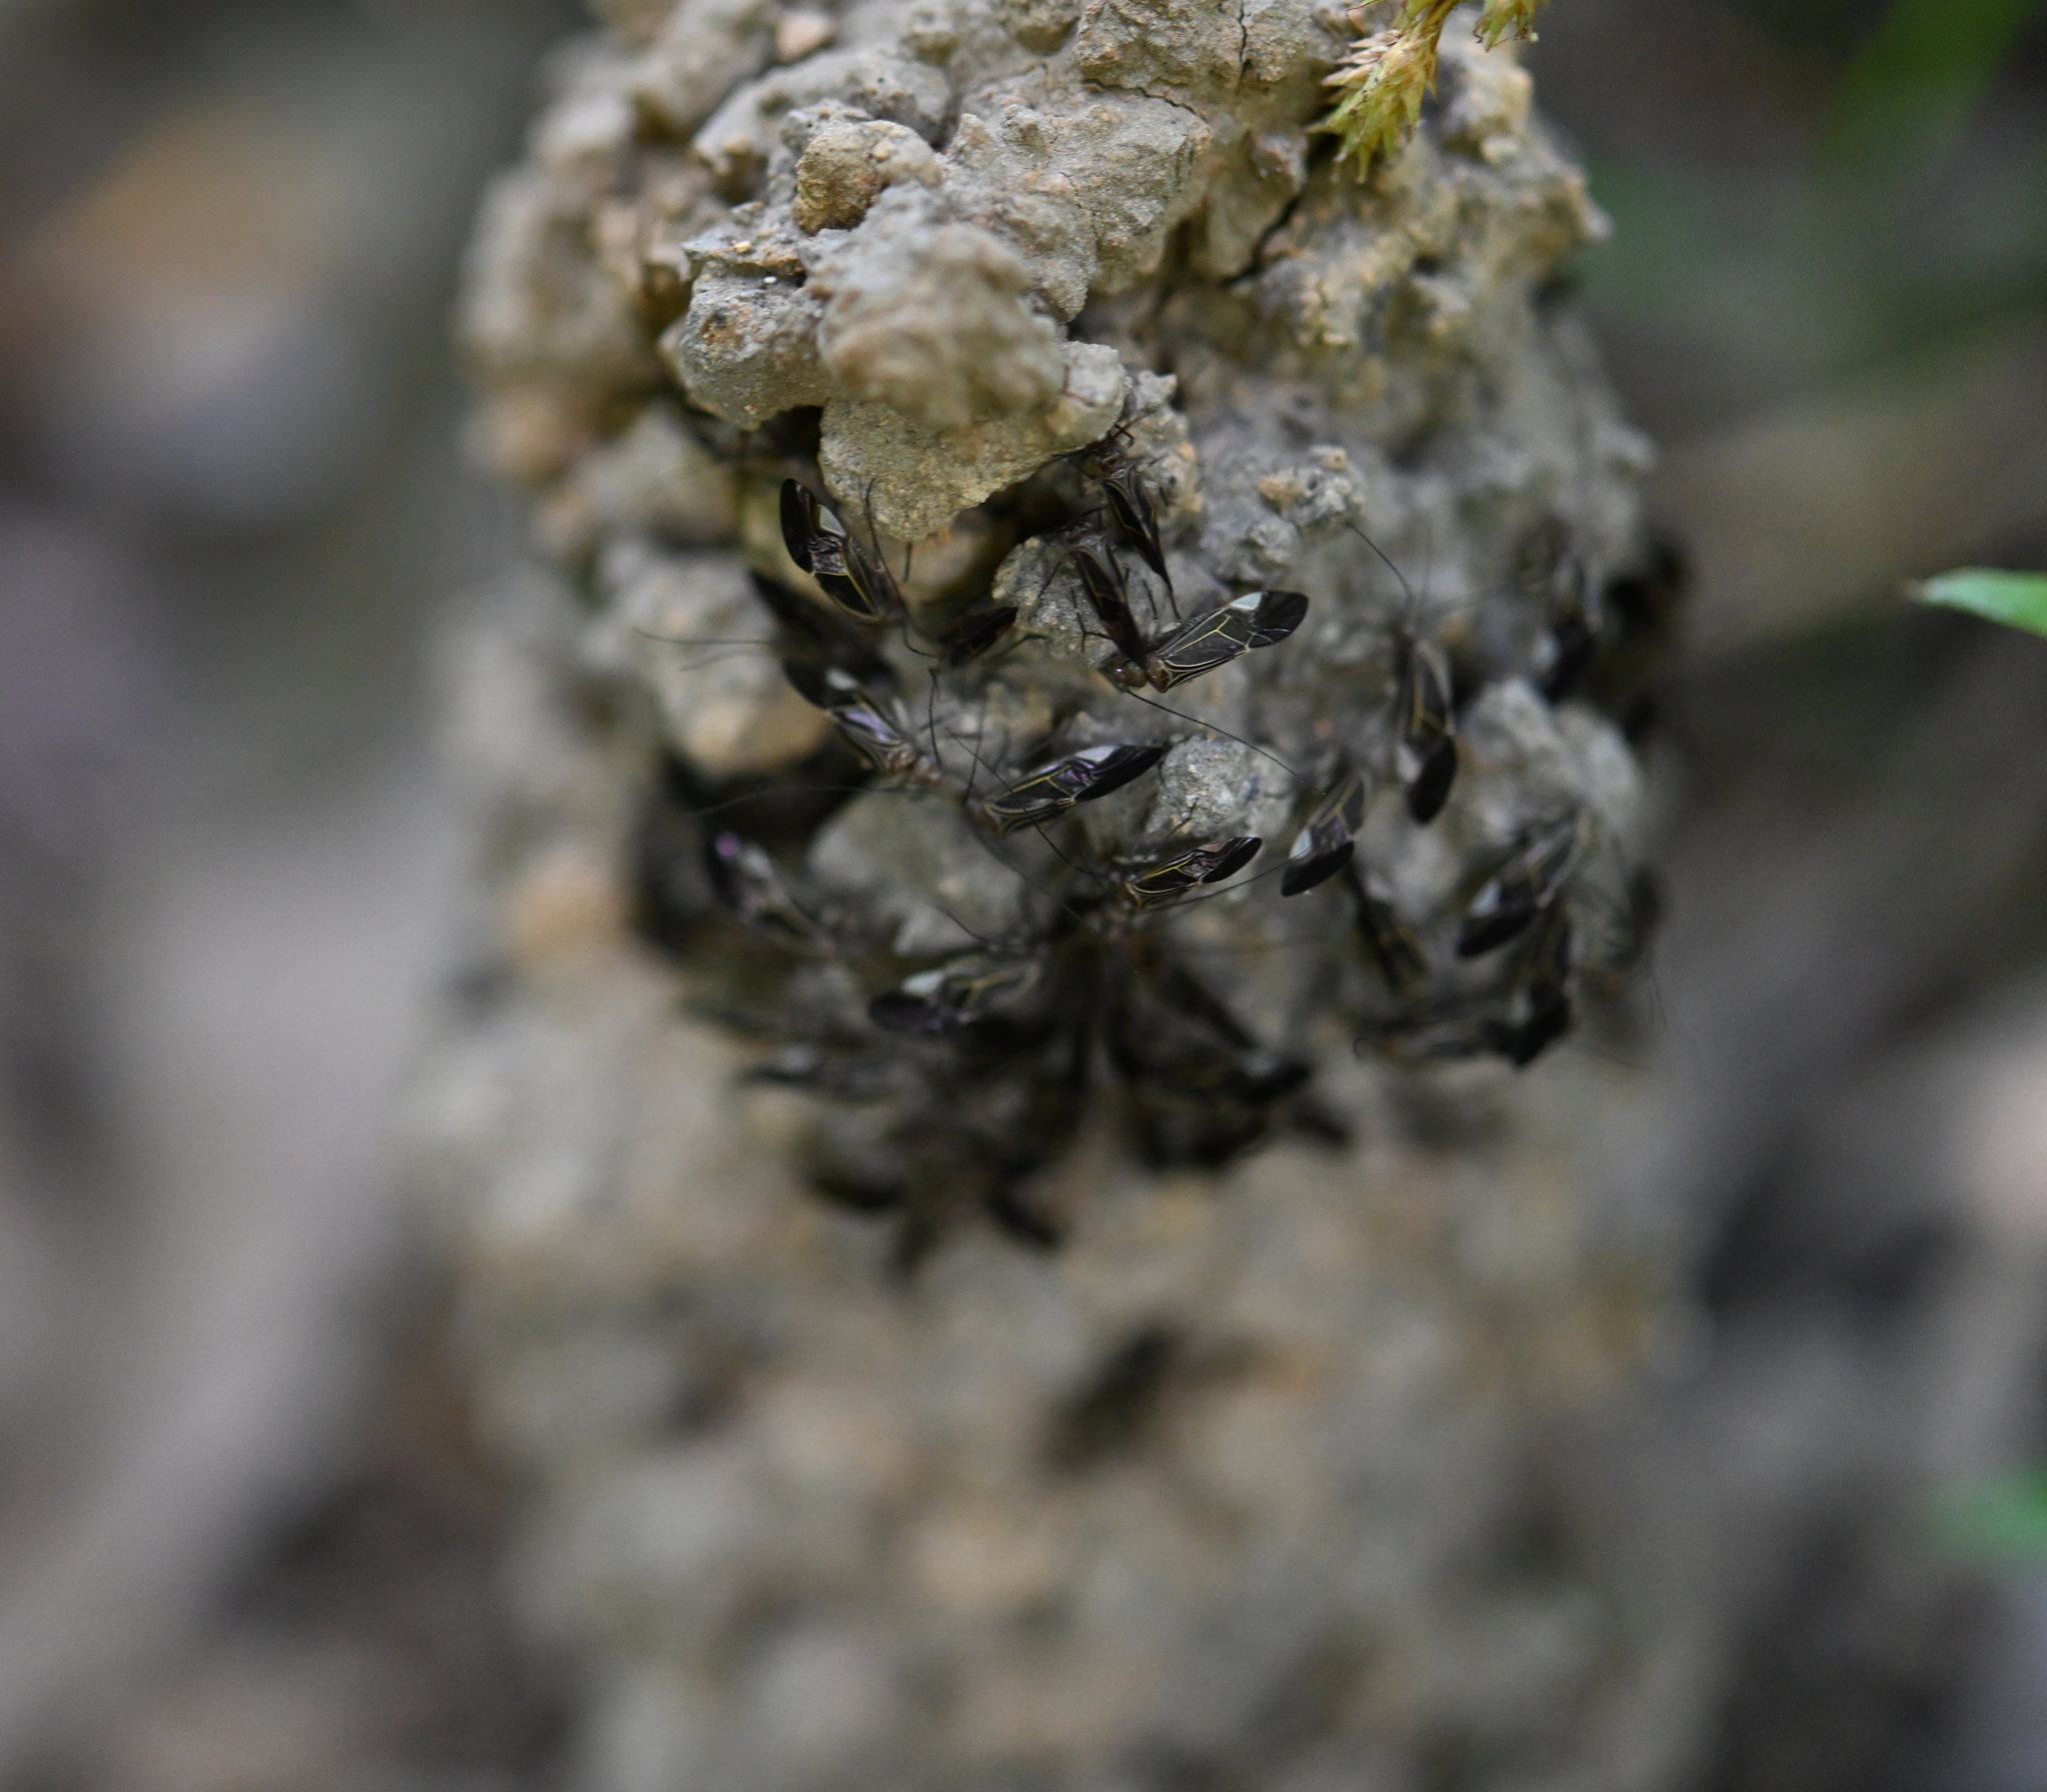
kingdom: Animalia
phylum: Arthropoda
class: Insecta
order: Psocodea
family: Psocidae
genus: Cerastipsocus
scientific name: Cerastipsocus venosus
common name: Tree cattle
